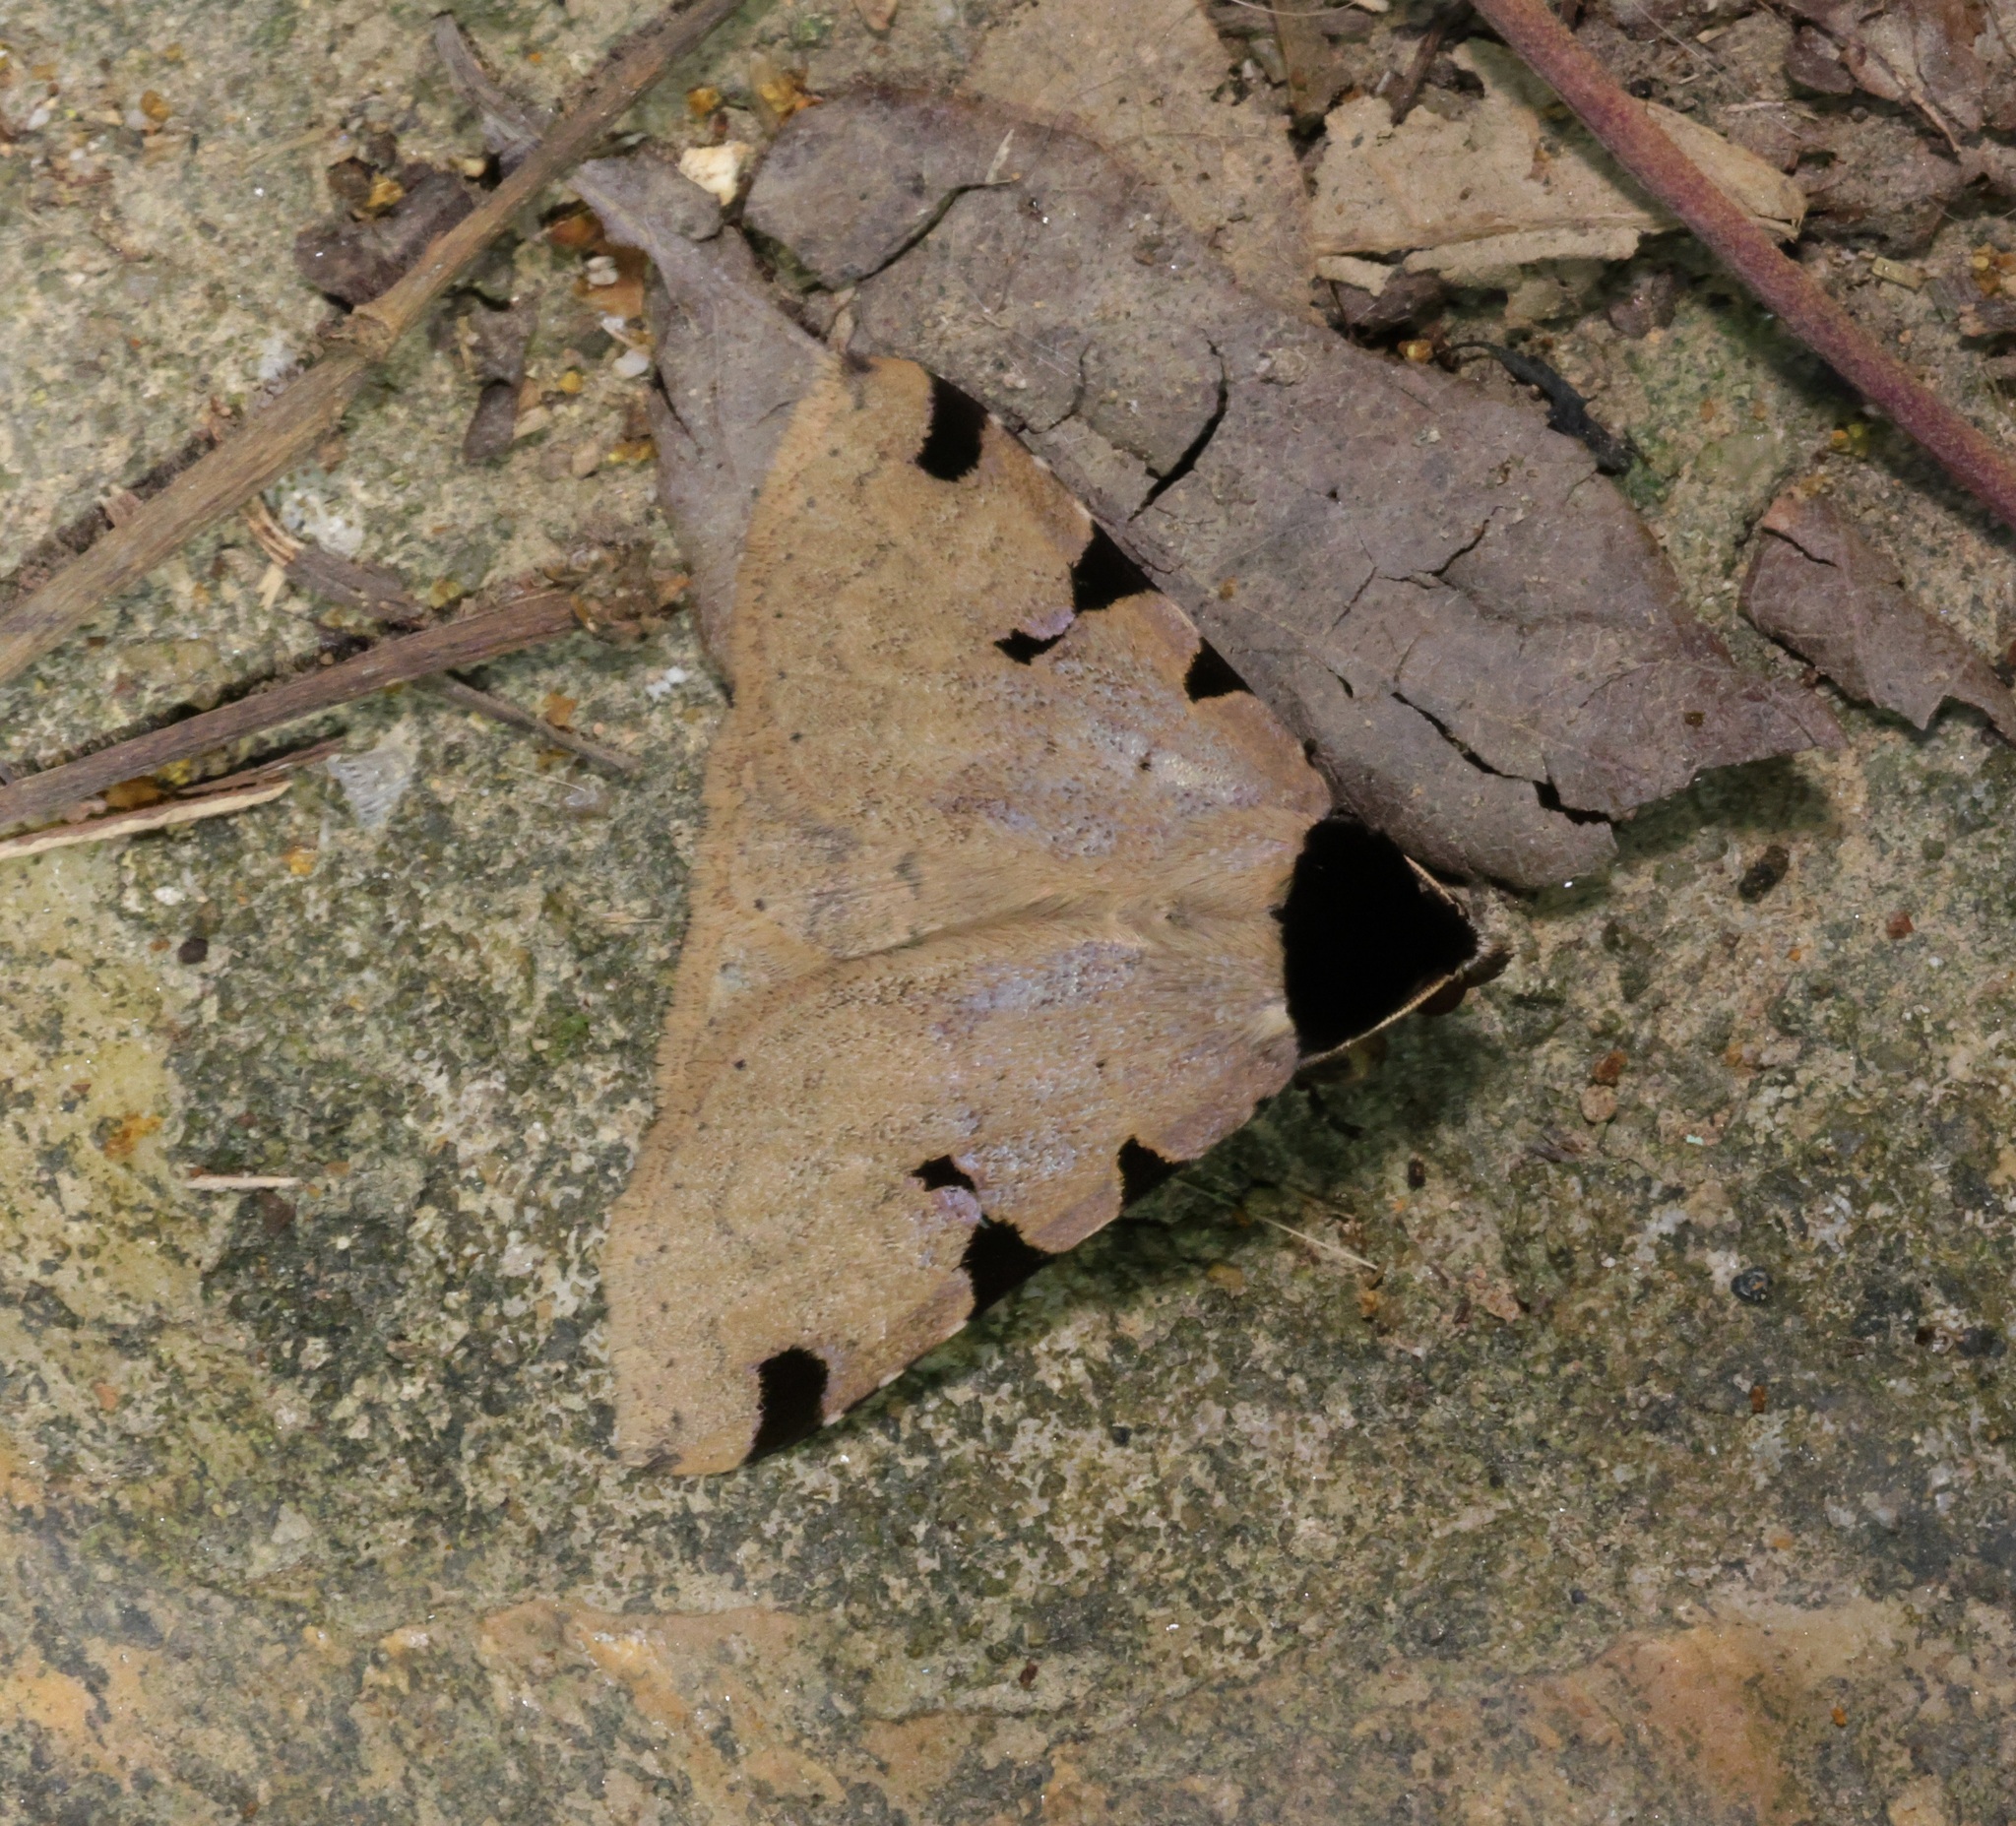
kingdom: Animalia
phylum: Arthropoda
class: Insecta
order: Lepidoptera
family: Erebidae
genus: Rema
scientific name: Rema costimacula
